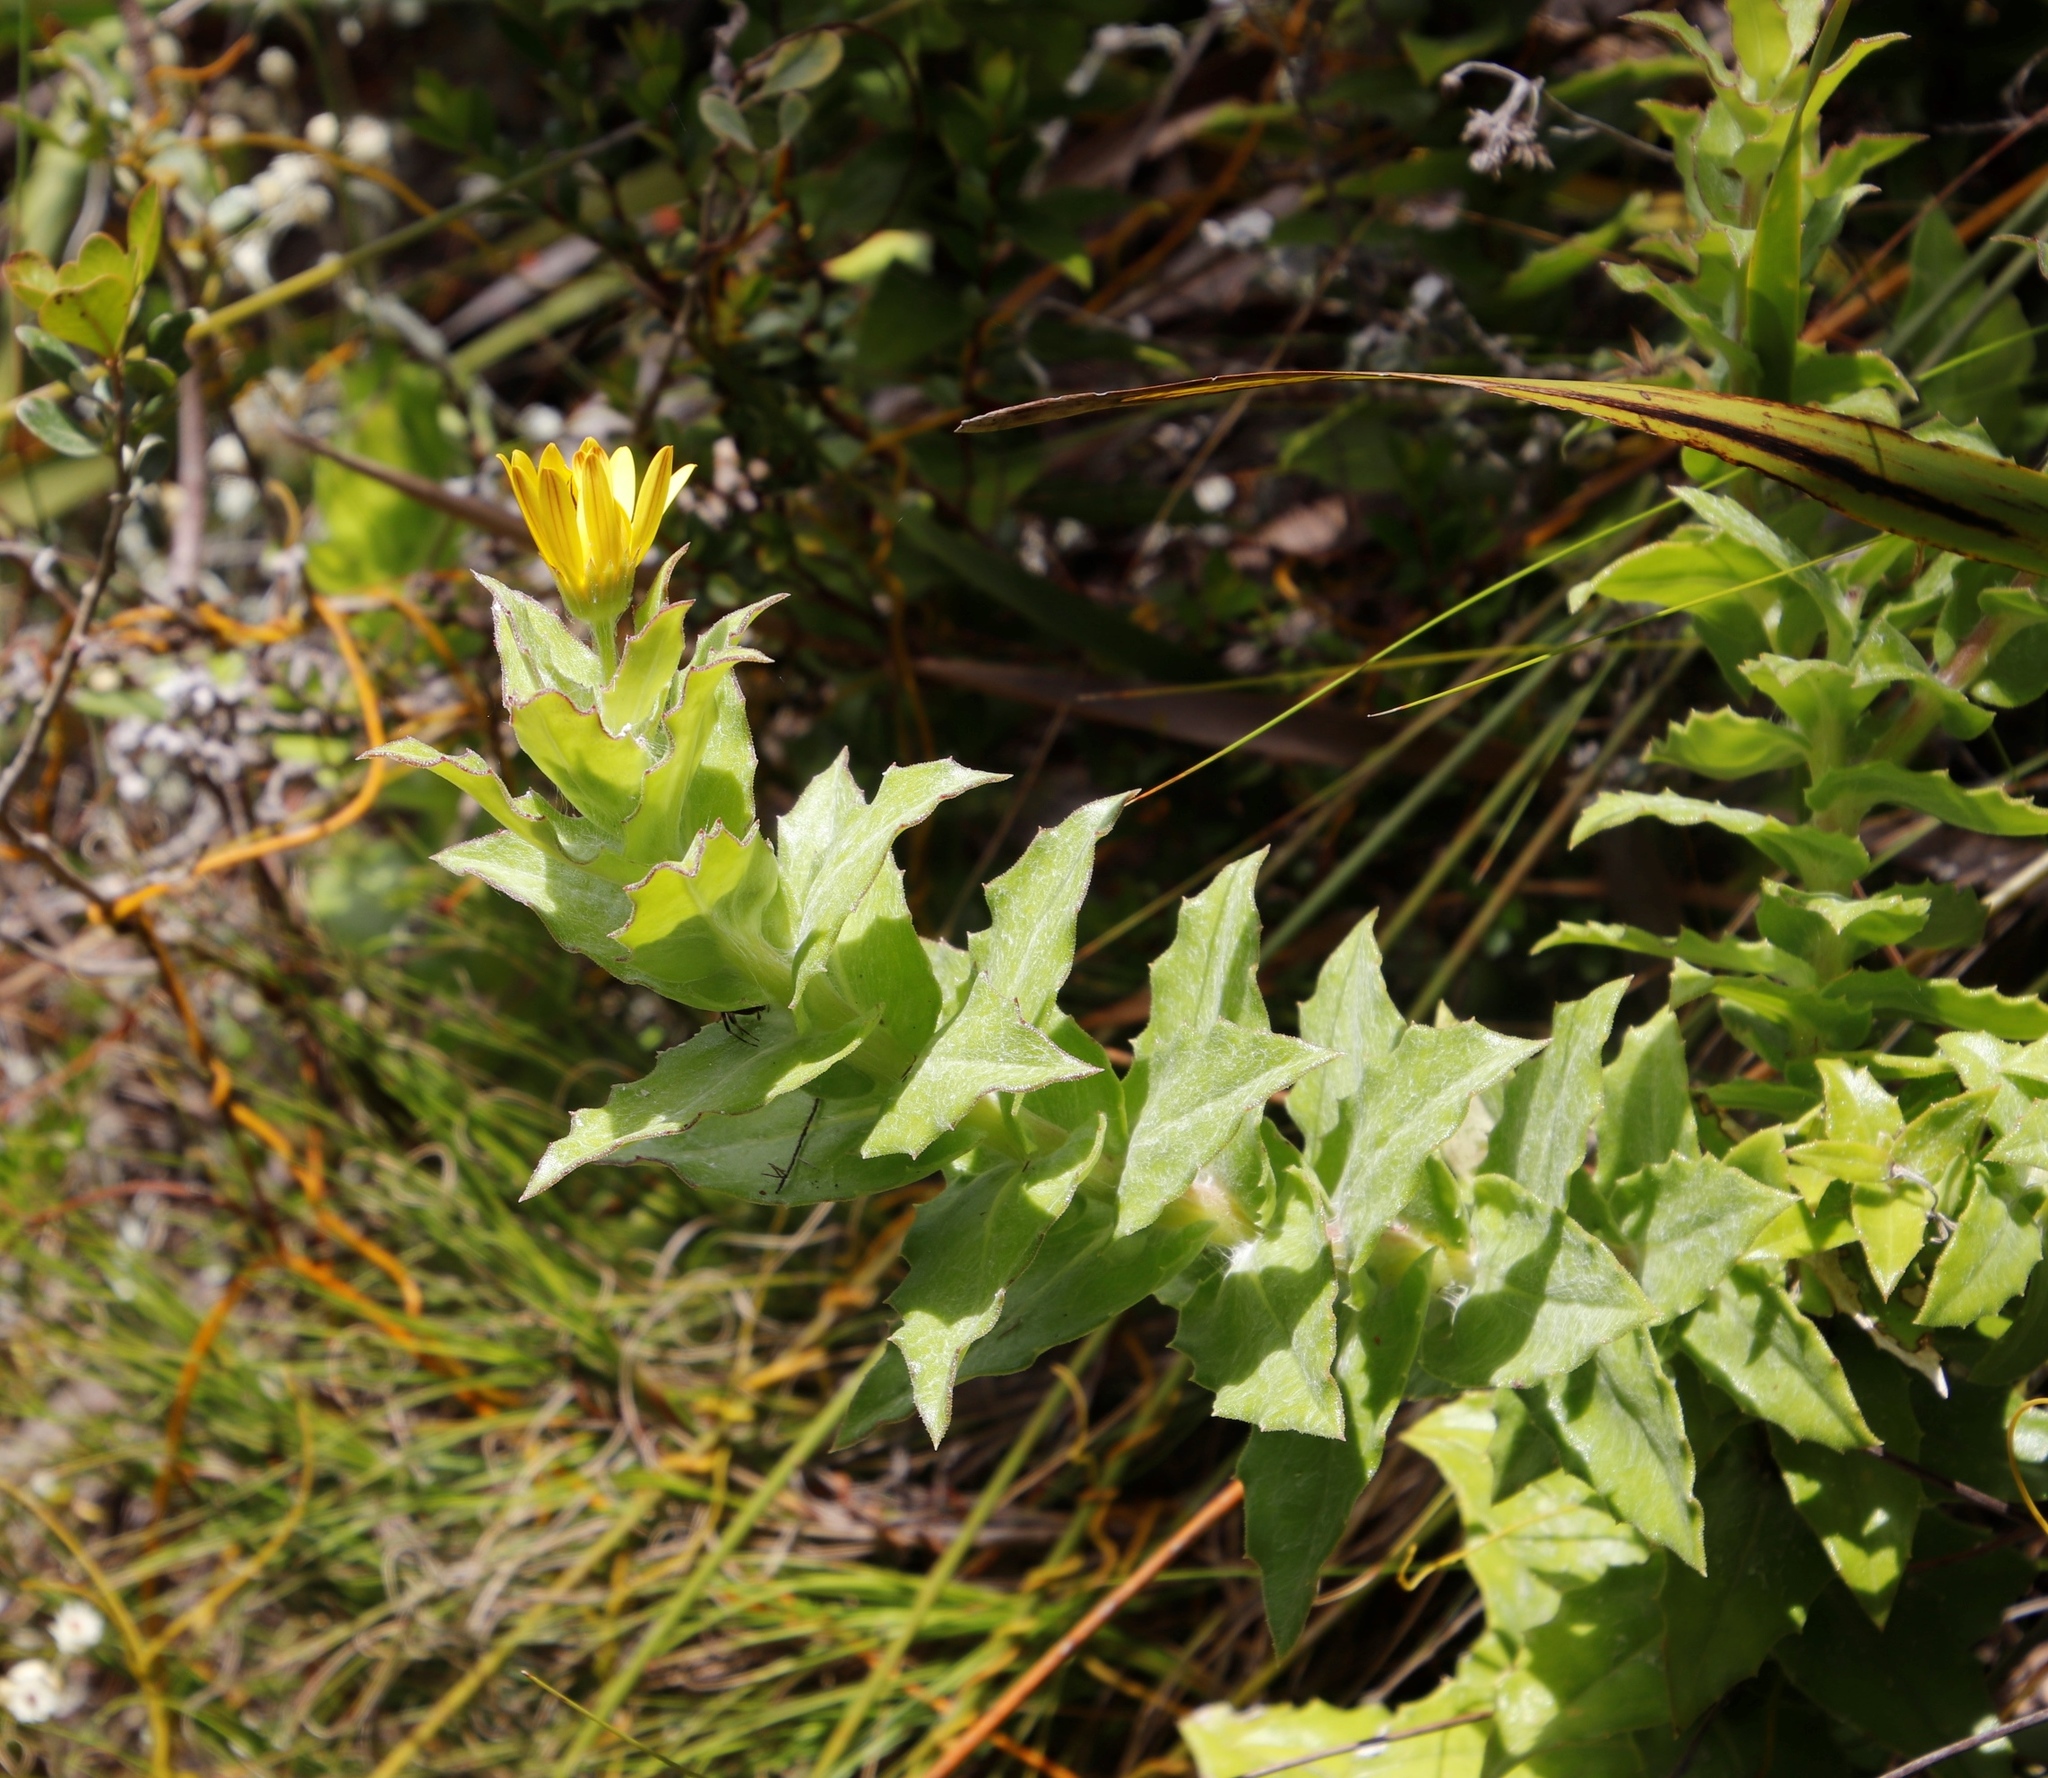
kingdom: Plantae
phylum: Tracheophyta
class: Magnoliopsida
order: Asterales
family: Asteraceae
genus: Osteospermum
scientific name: Osteospermum ilicifolium
